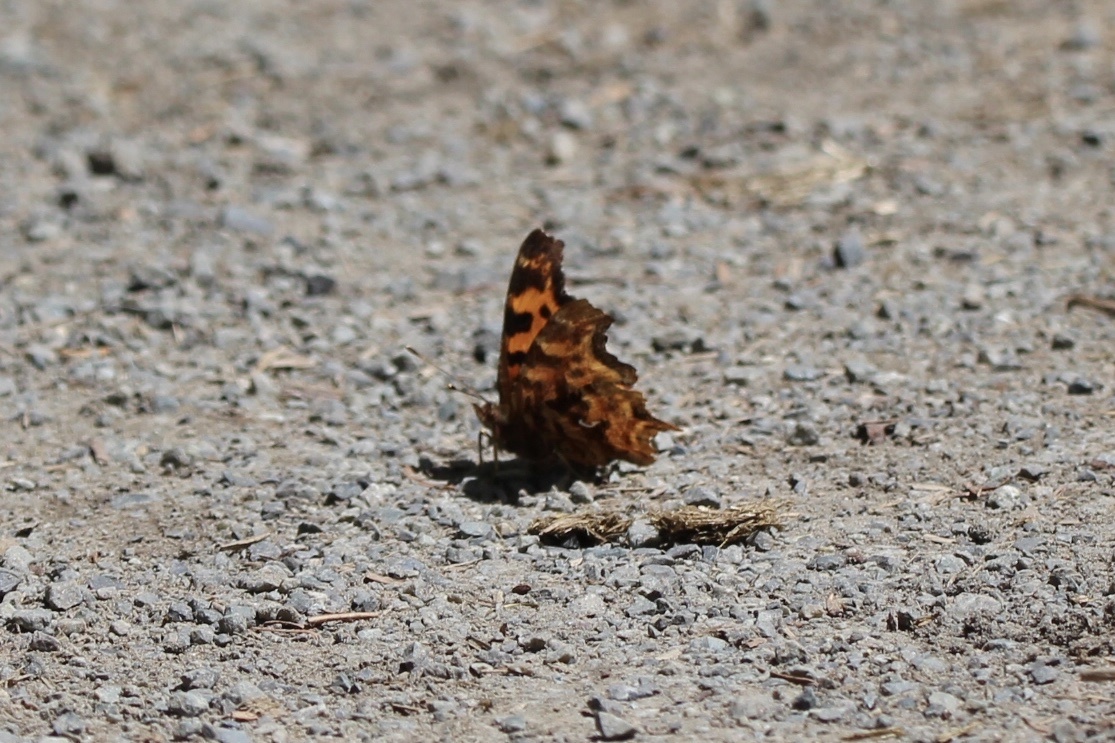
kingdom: Animalia
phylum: Arthropoda
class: Insecta
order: Lepidoptera
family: Nymphalidae
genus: Polygonia
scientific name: Polygonia satyrus
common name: Satyr angle wing
